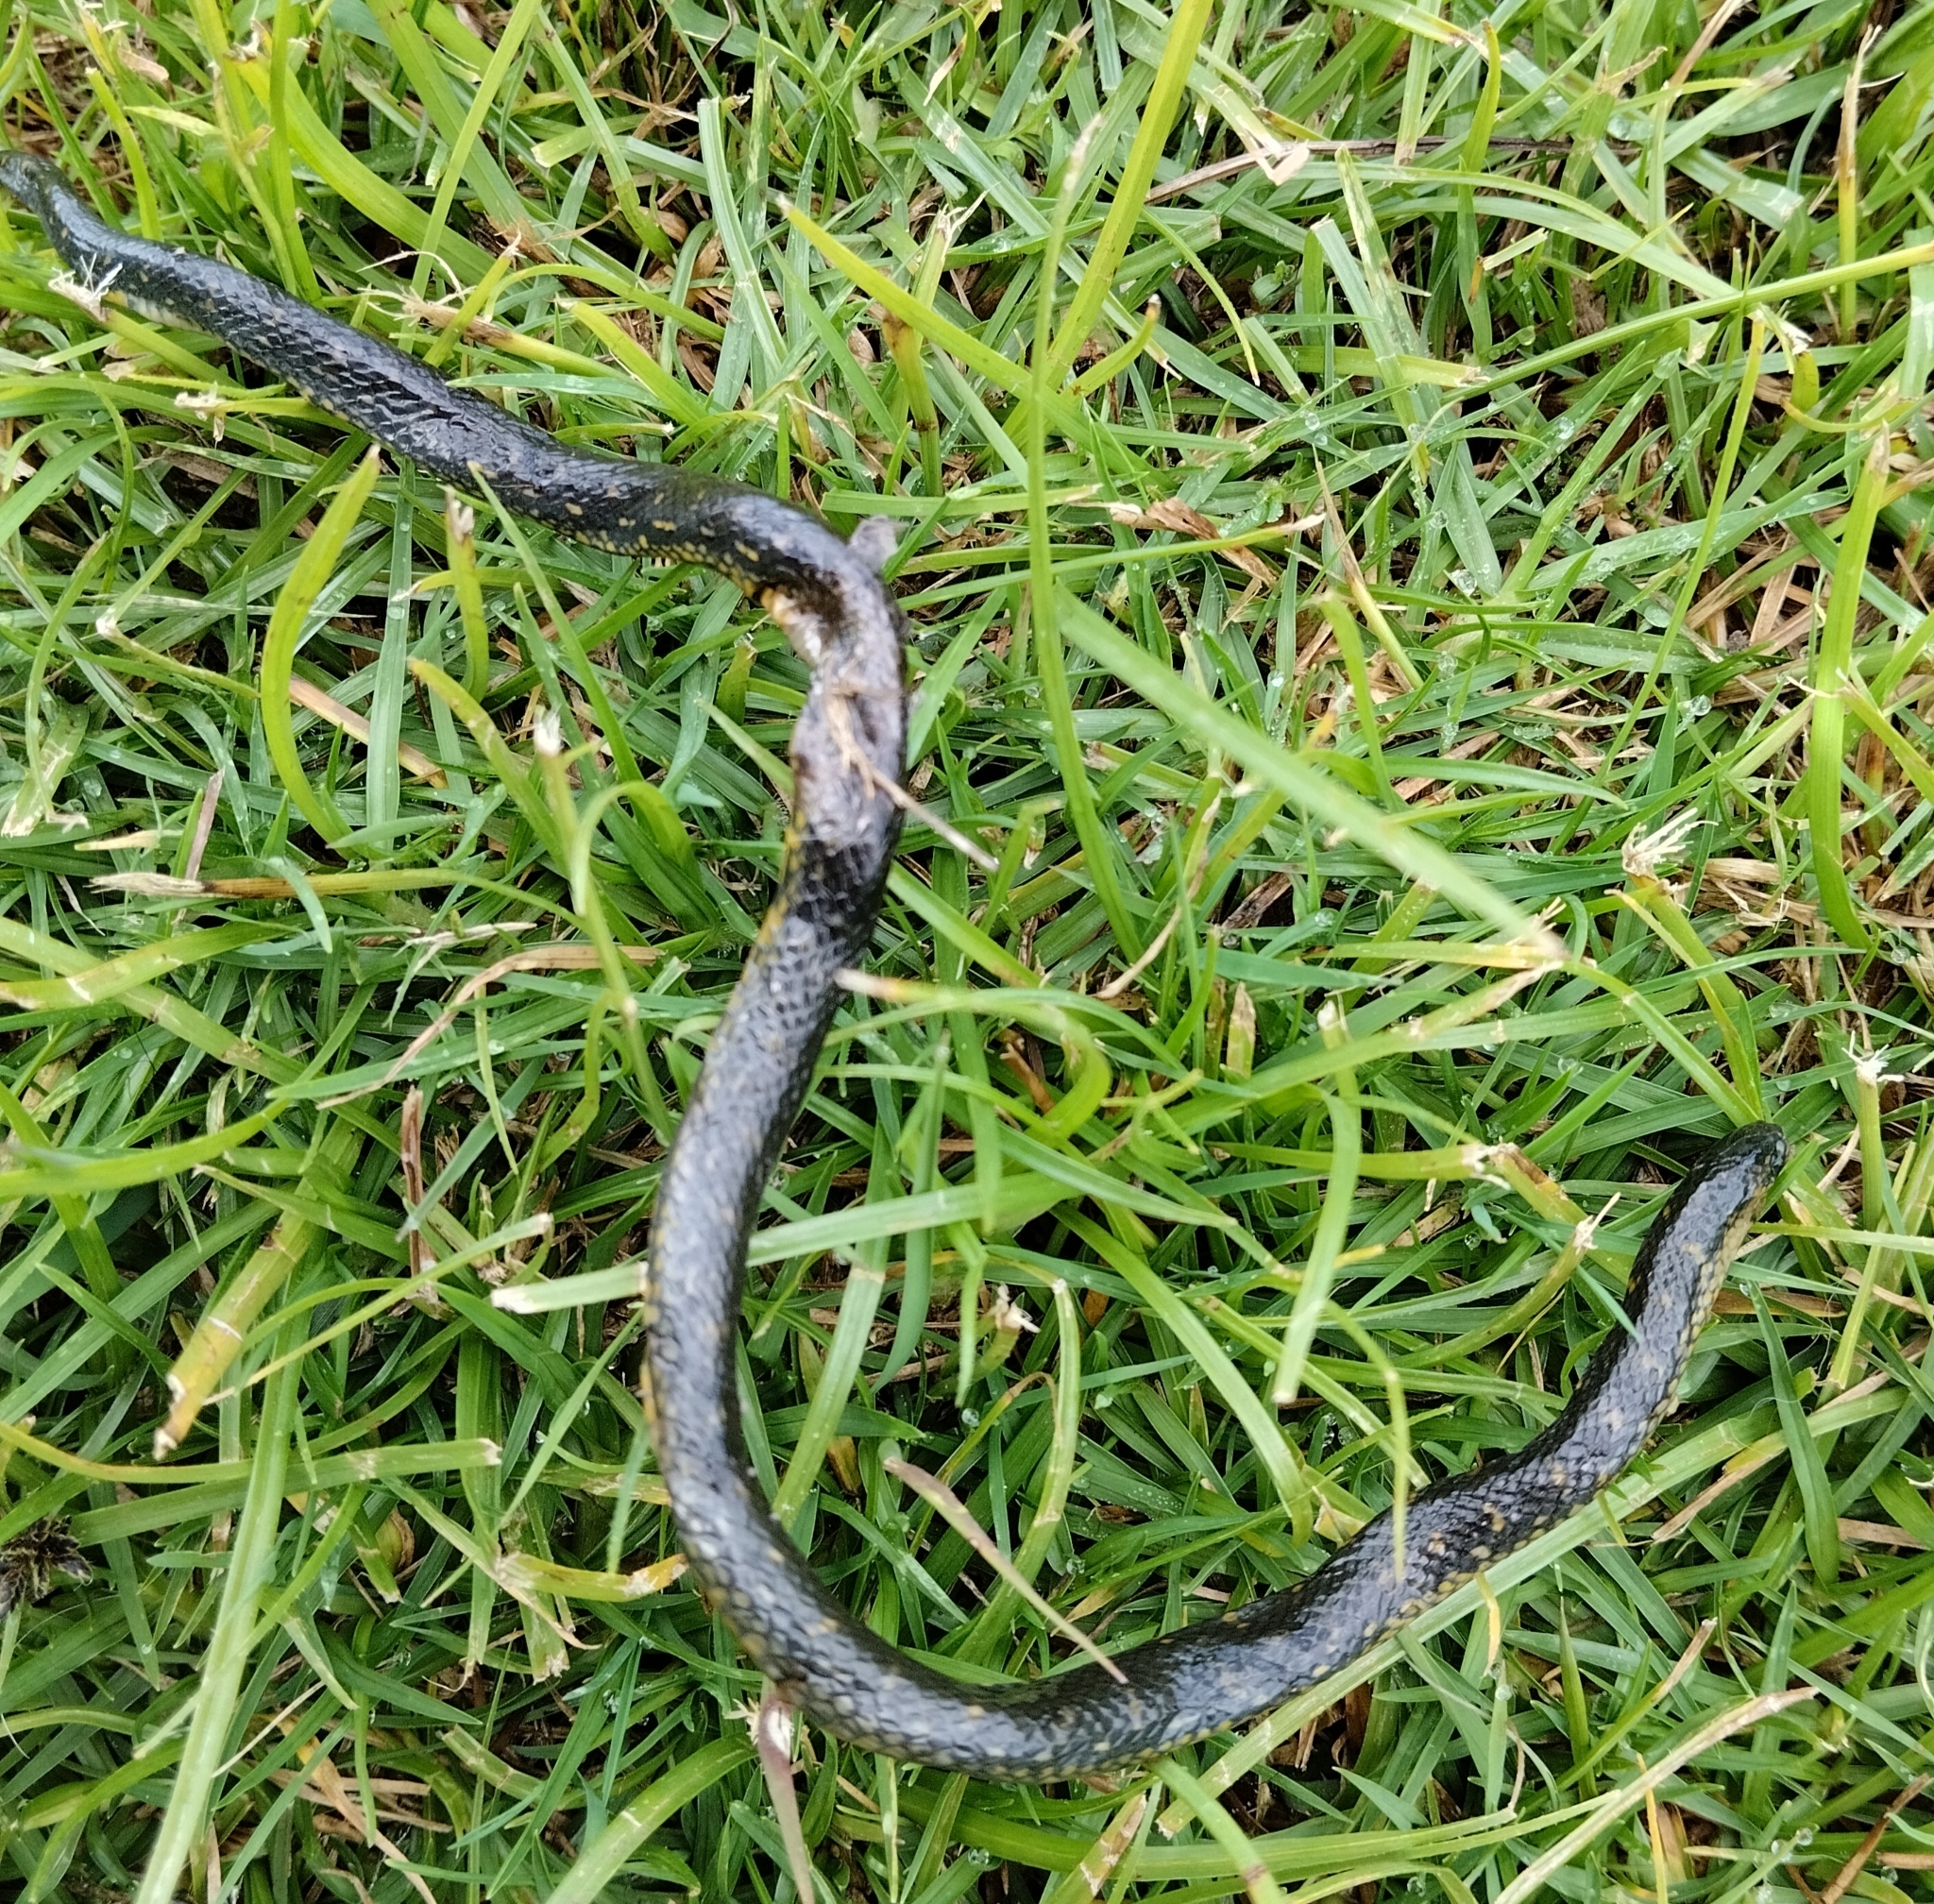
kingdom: Animalia
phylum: Chordata
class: Squamata
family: Colubridae
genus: Atractus
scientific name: Atractus crassicaudatus
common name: Thickhead ground snake
